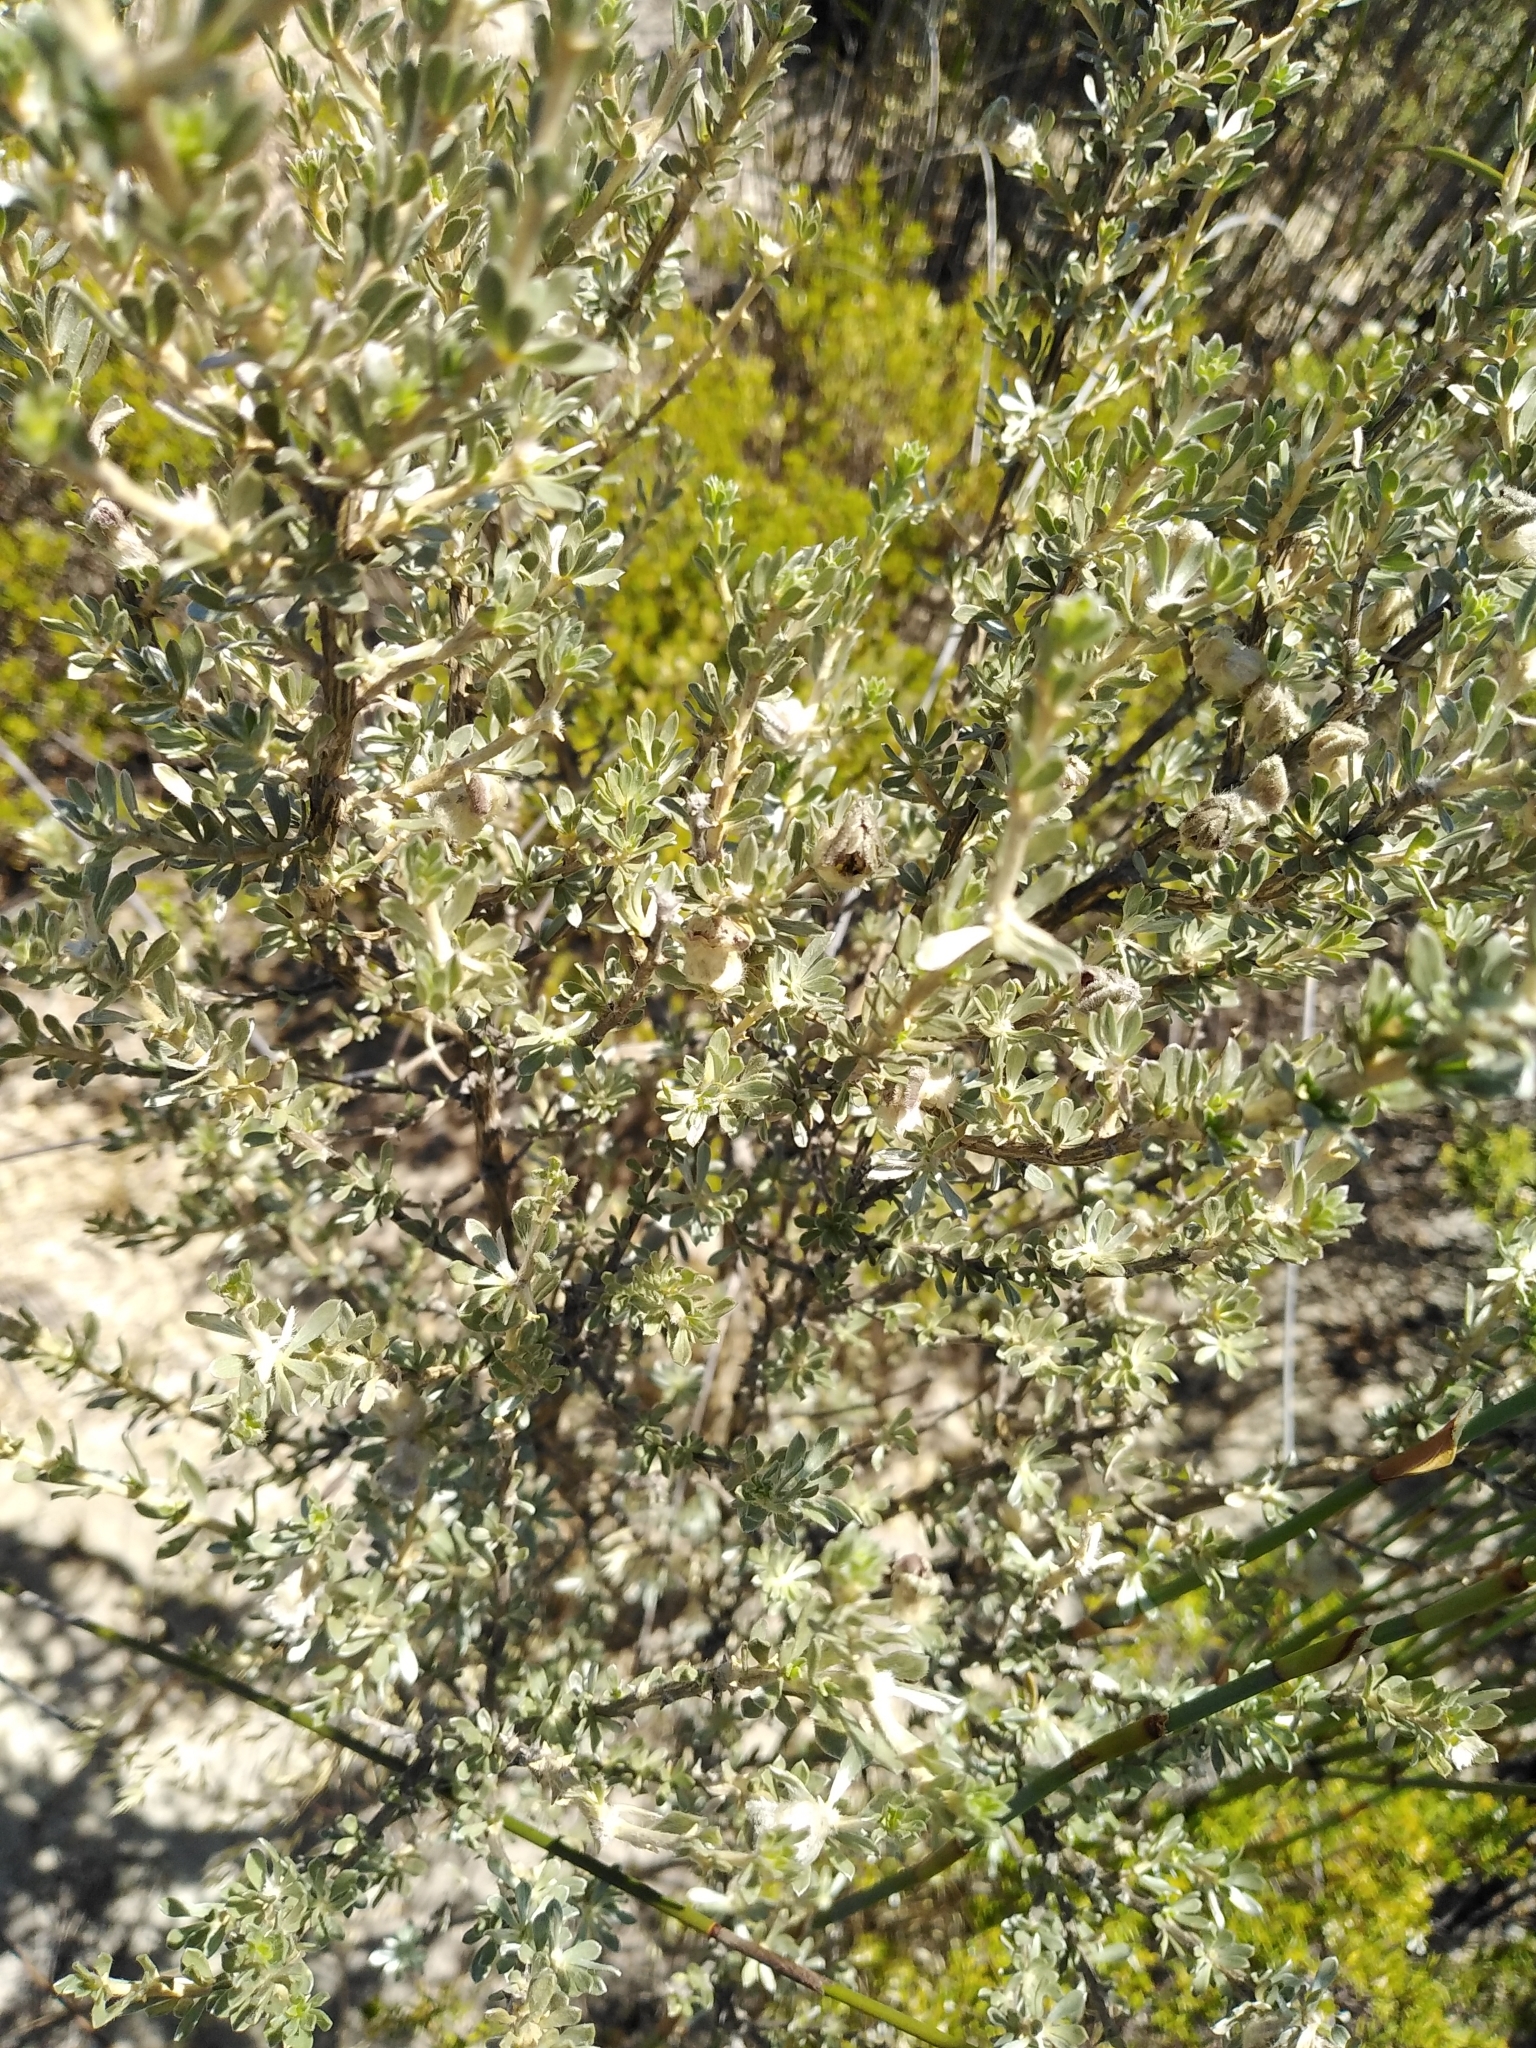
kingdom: Plantae
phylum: Tracheophyta
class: Magnoliopsida
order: Fabales
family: Fabaceae
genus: Aspalathus
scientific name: Aspalathus ternata
